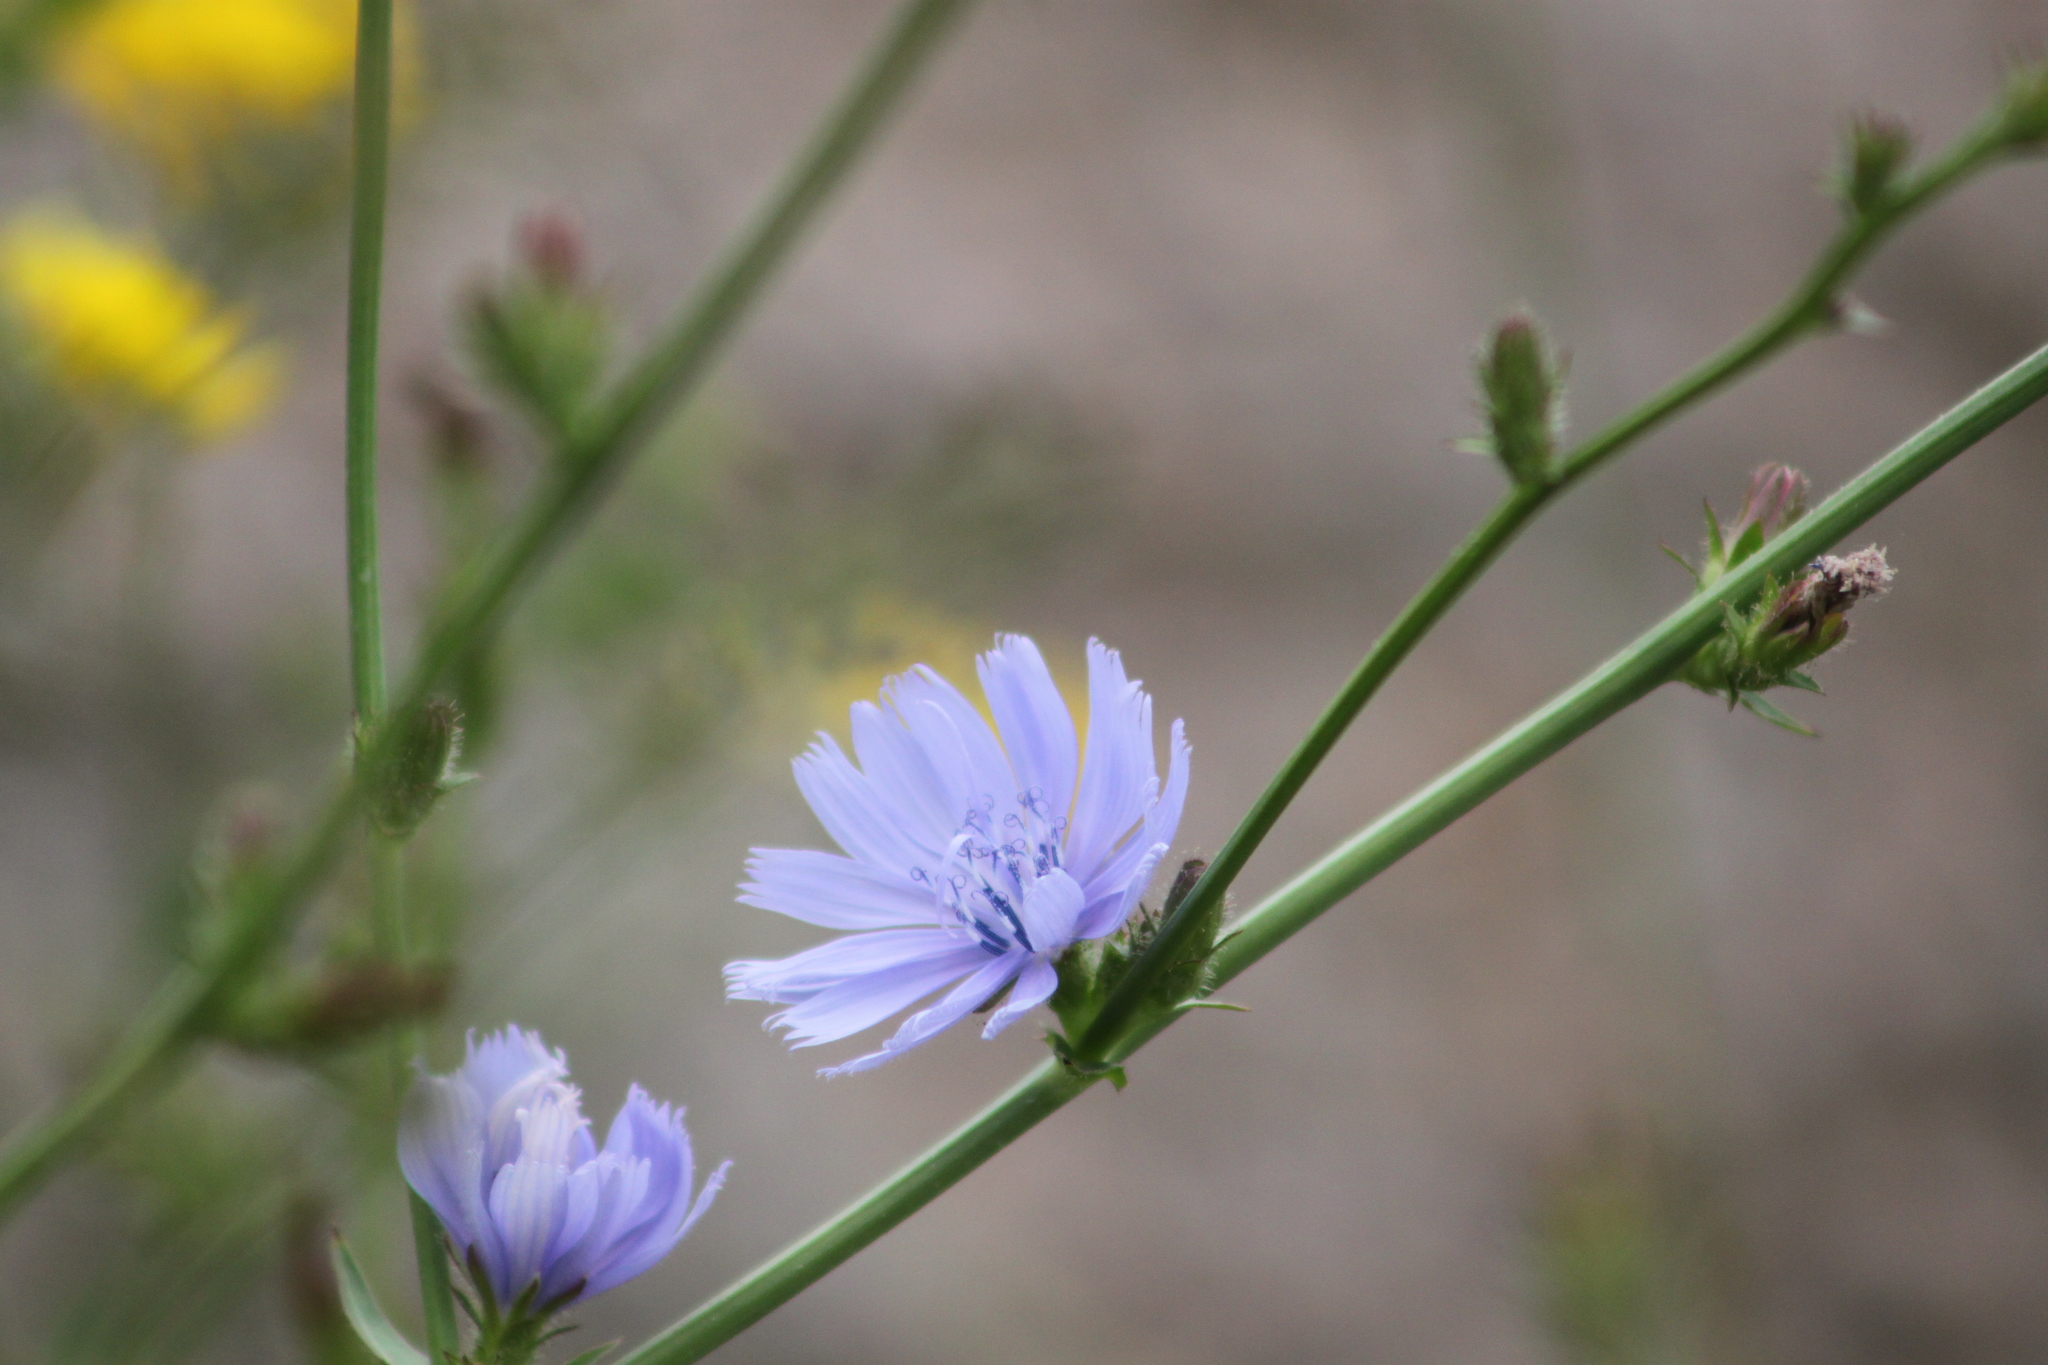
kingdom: Plantae
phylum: Tracheophyta
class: Magnoliopsida
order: Asterales
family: Asteraceae
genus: Cichorium
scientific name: Cichorium intybus
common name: Chicory
